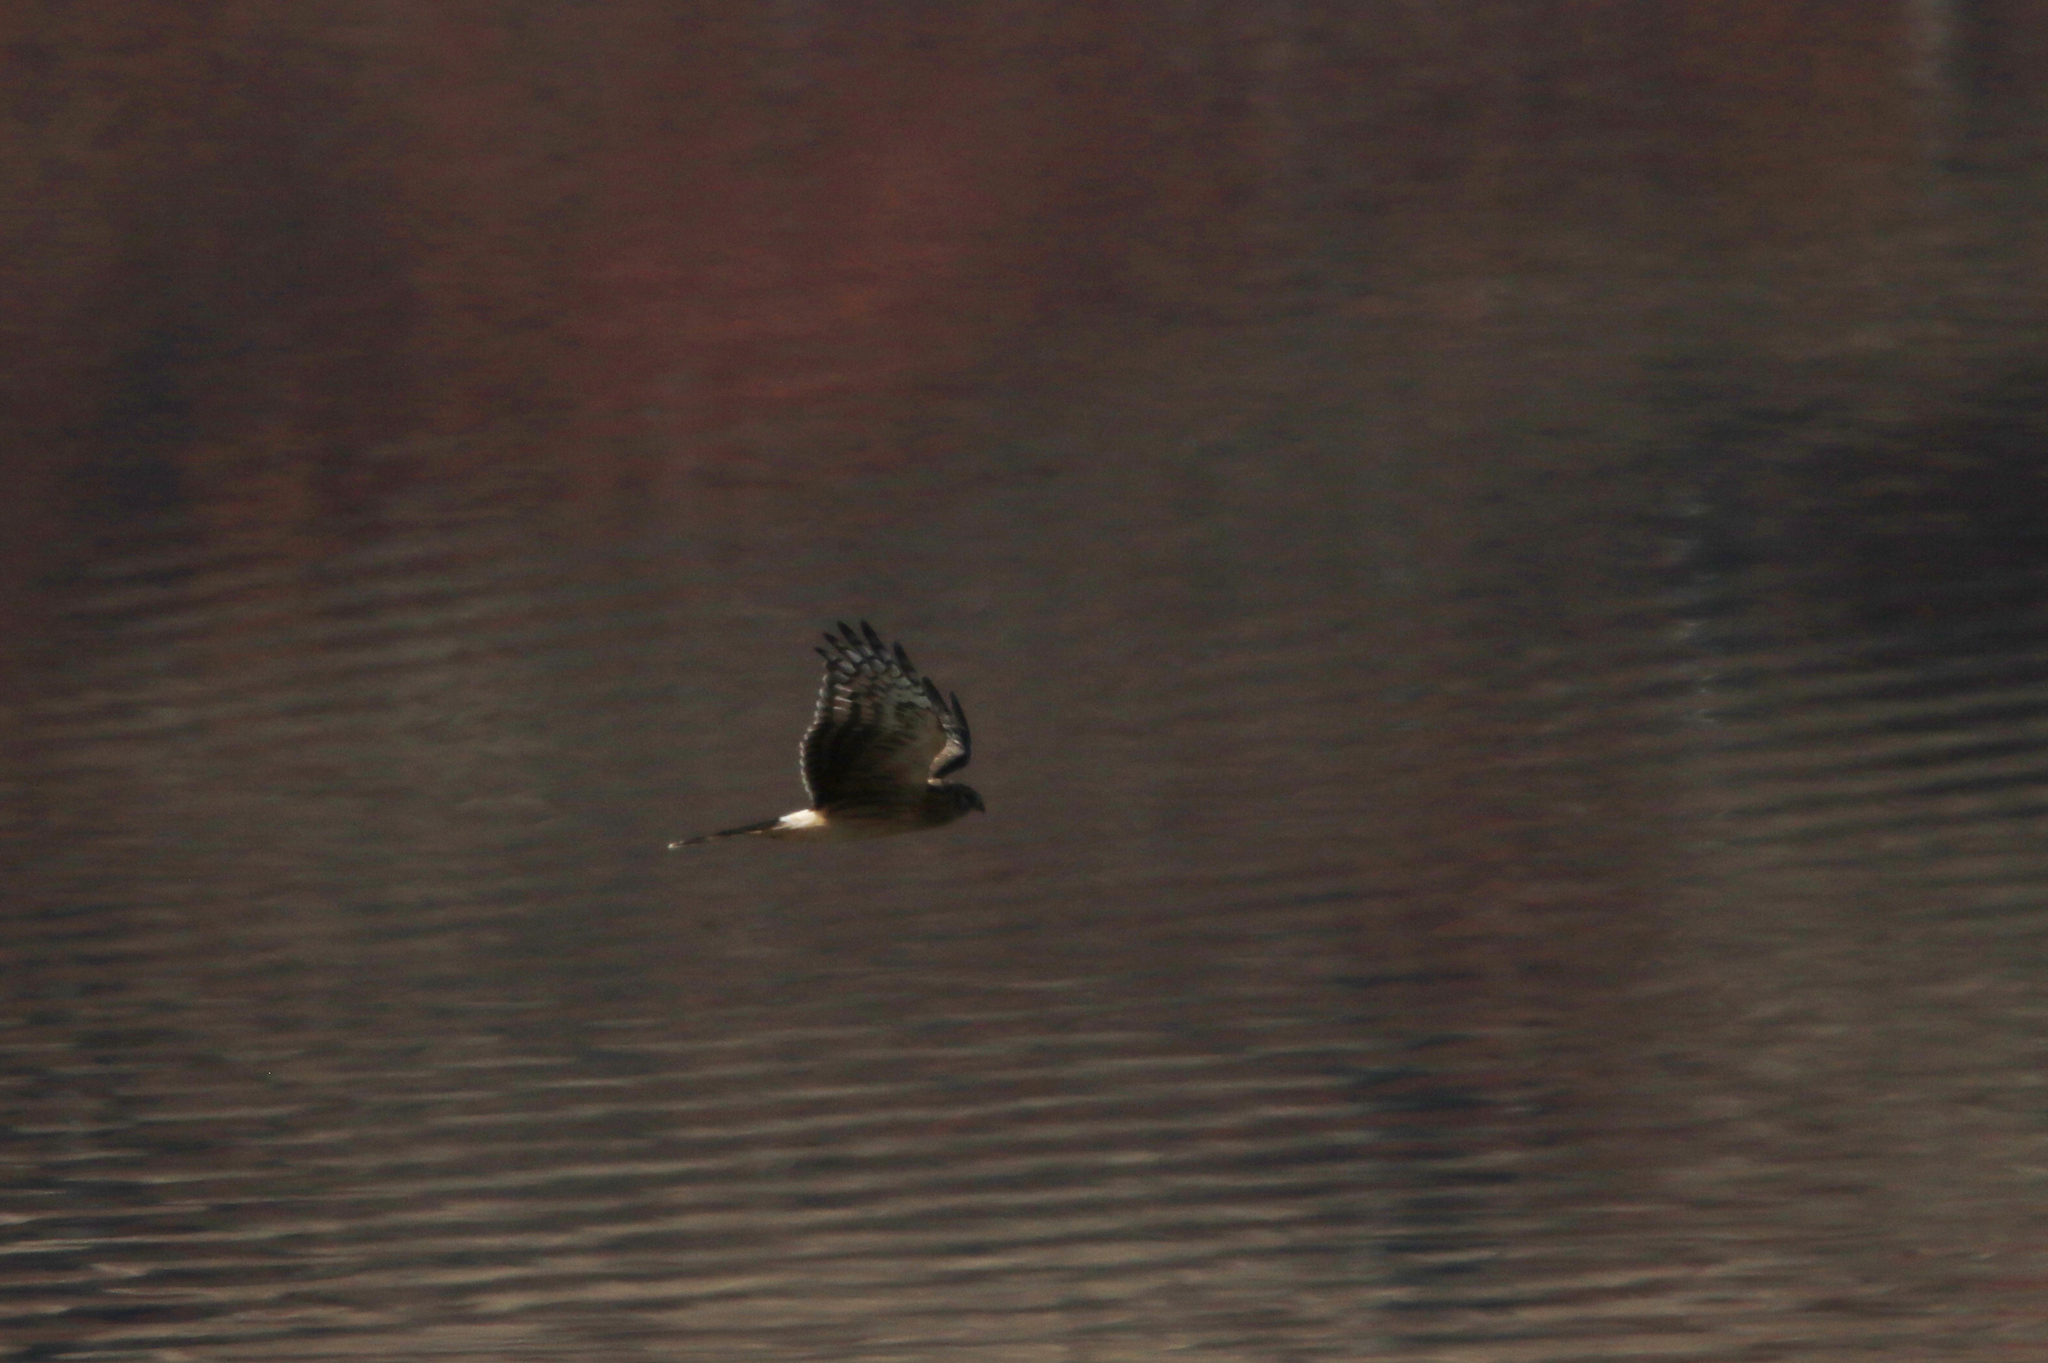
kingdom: Animalia
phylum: Chordata
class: Aves
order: Accipitriformes
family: Accipitridae
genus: Circus
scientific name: Circus cyaneus
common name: Hen harrier
